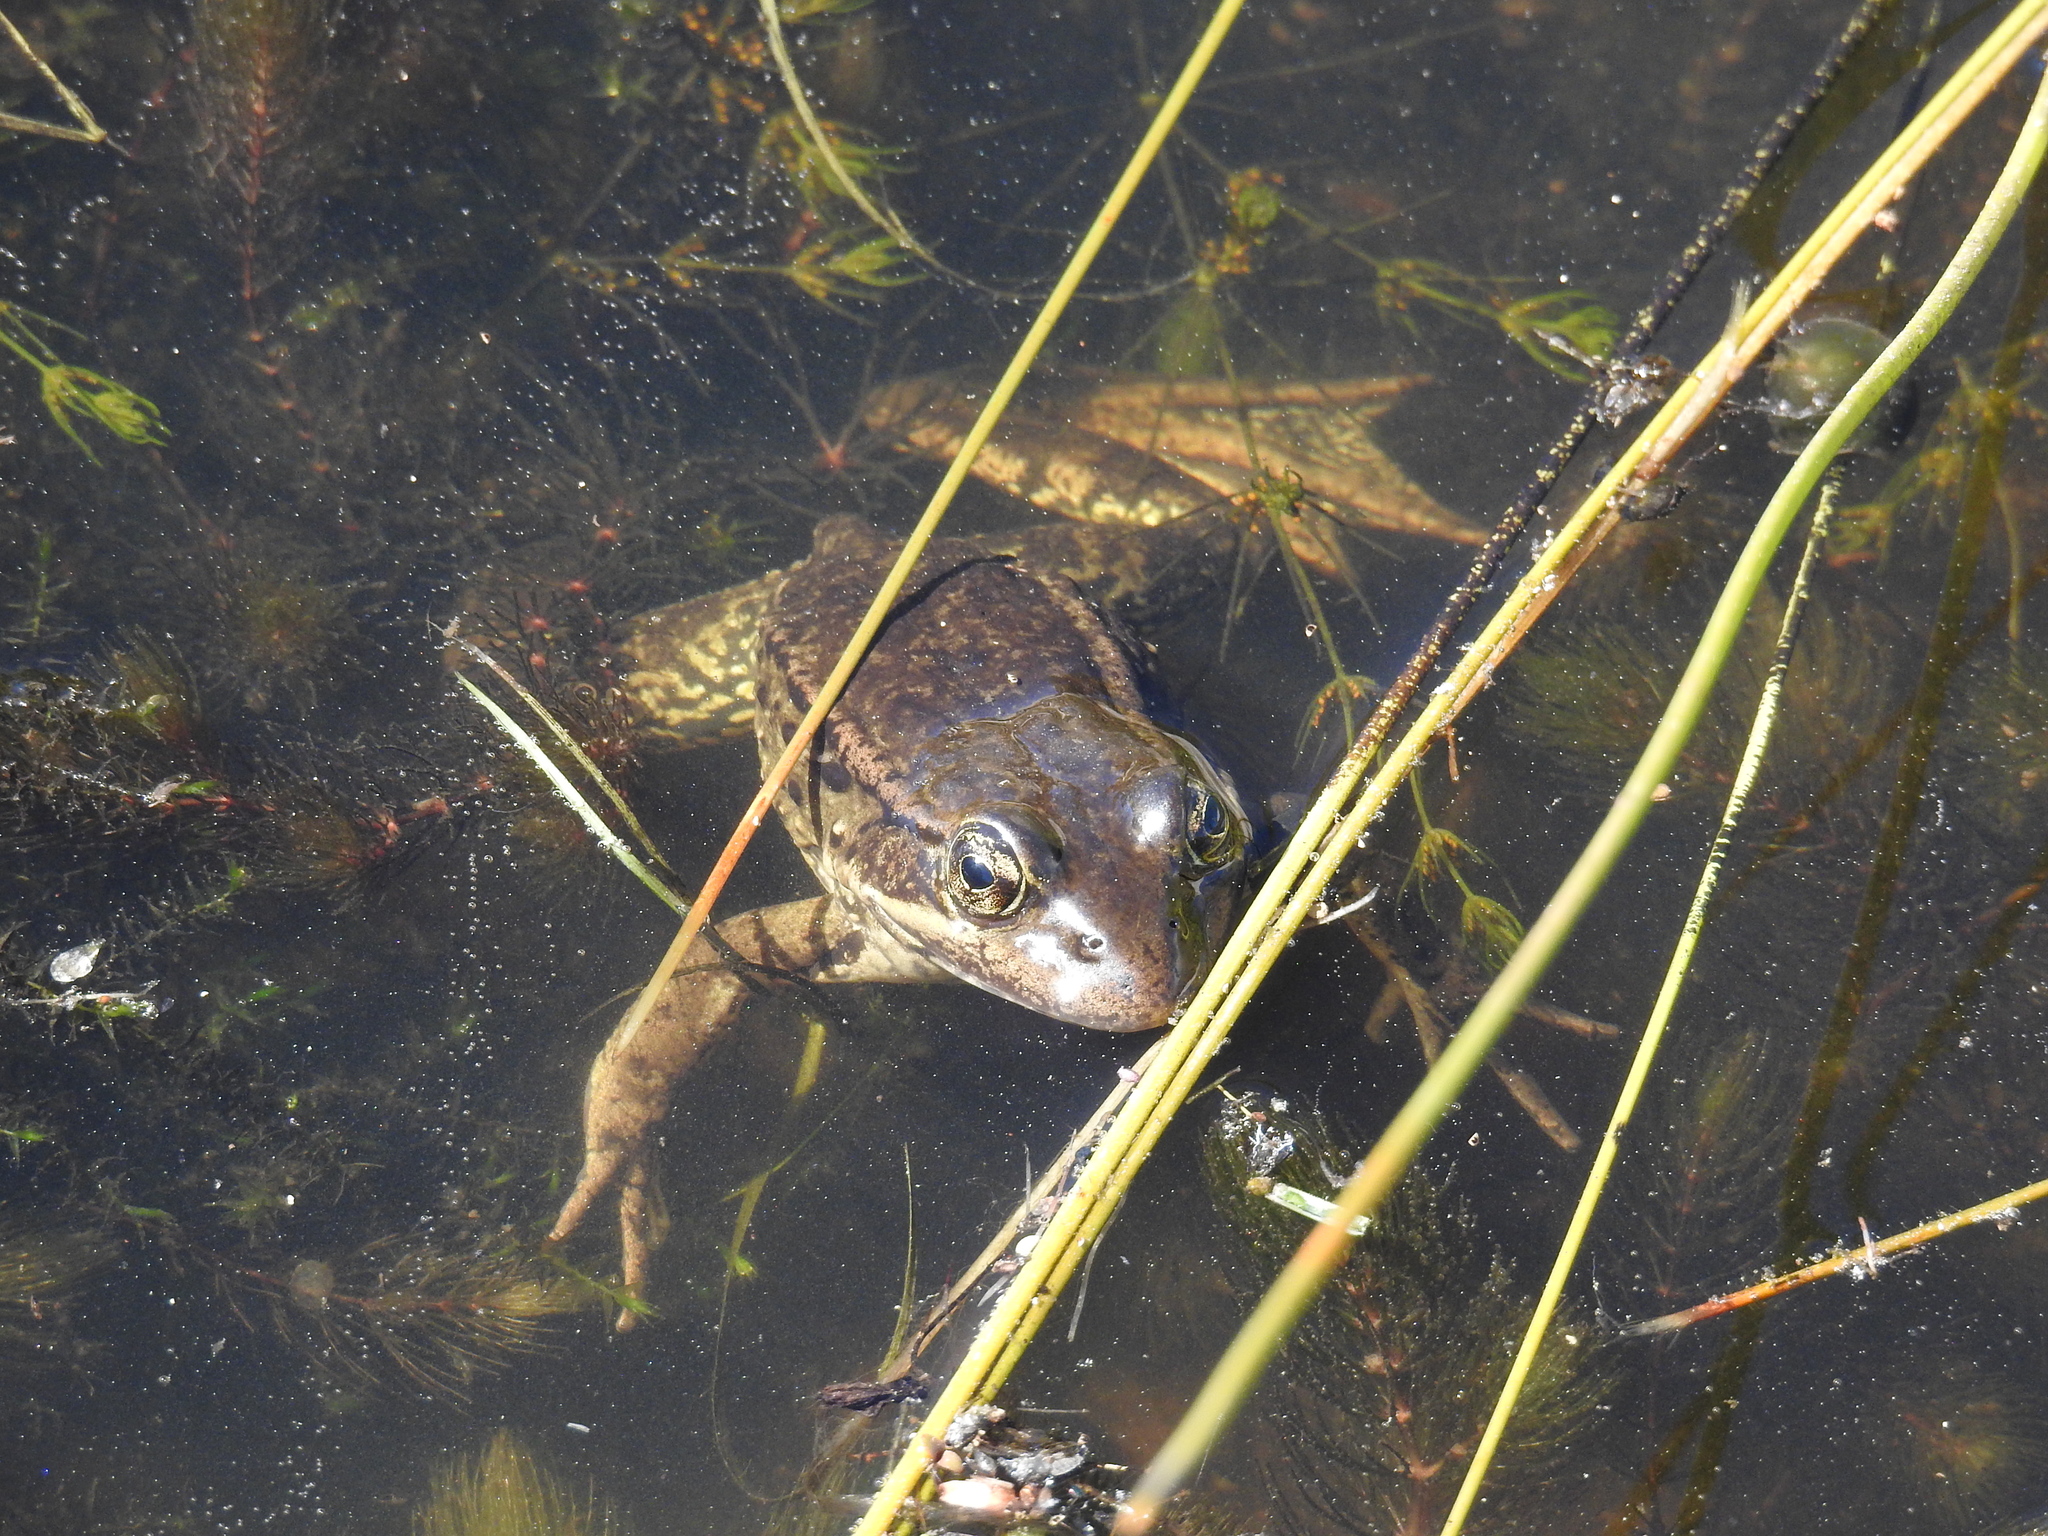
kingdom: Animalia
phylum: Chordata
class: Amphibia
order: Anura
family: Ranidae
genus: Rana
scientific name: Rana draytonii
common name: California red-legged frog
